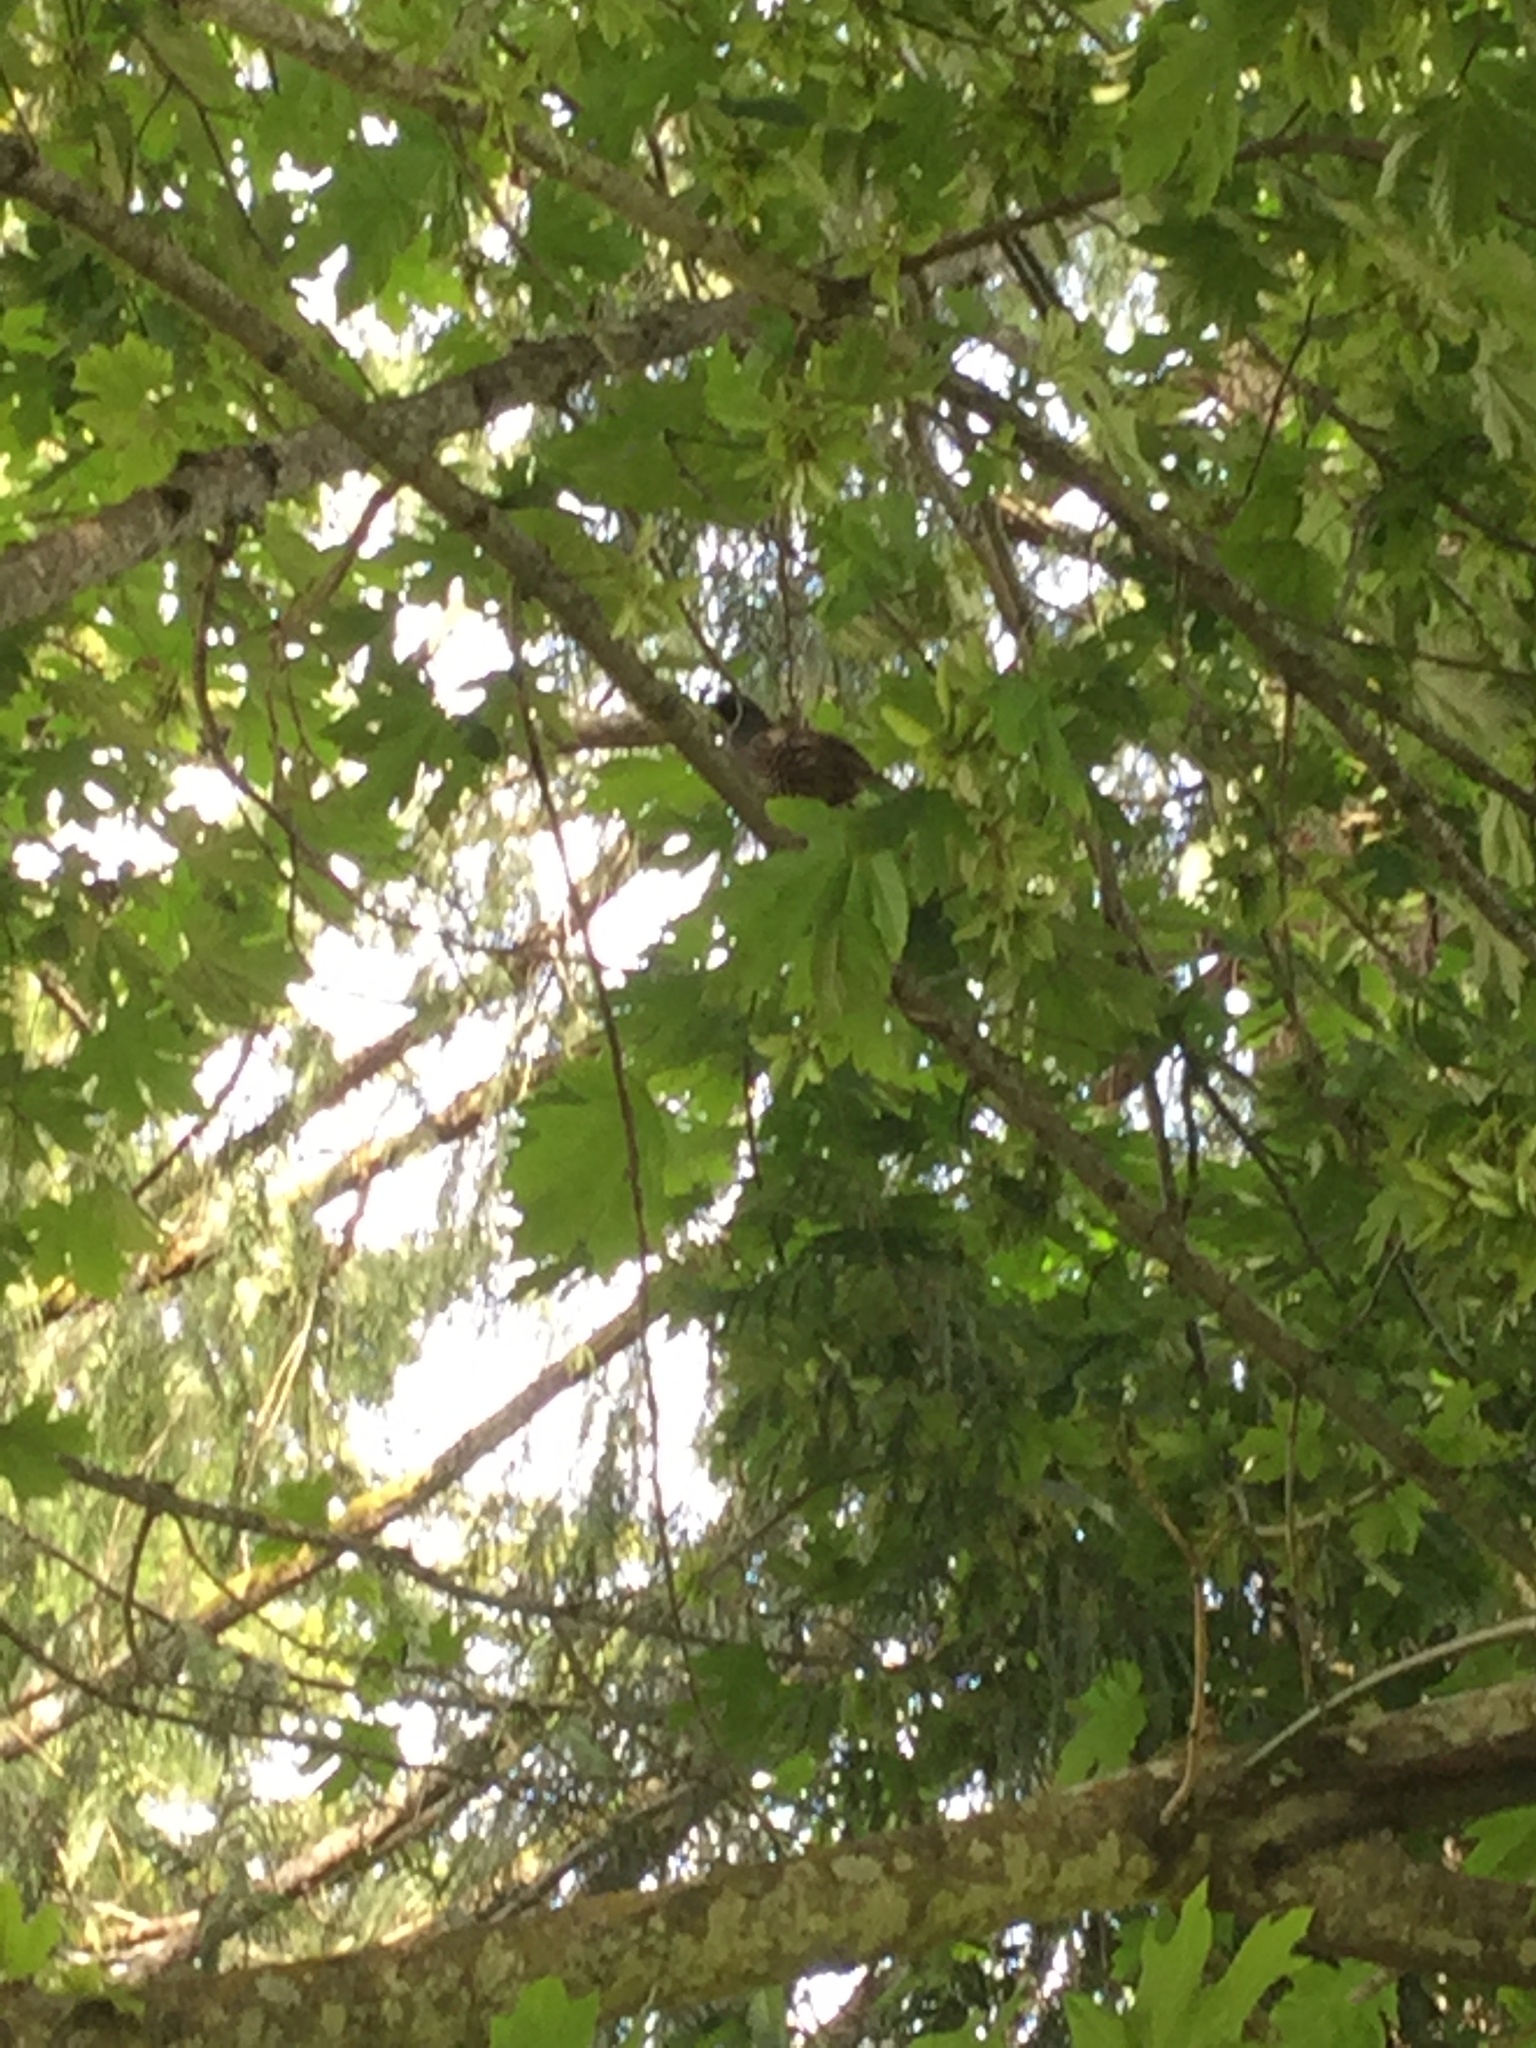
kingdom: Animalia
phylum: Chordata
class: Aves
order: Galliformes
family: Odontophoridae
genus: Callipepla
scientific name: Callipepla californica
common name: California quail
